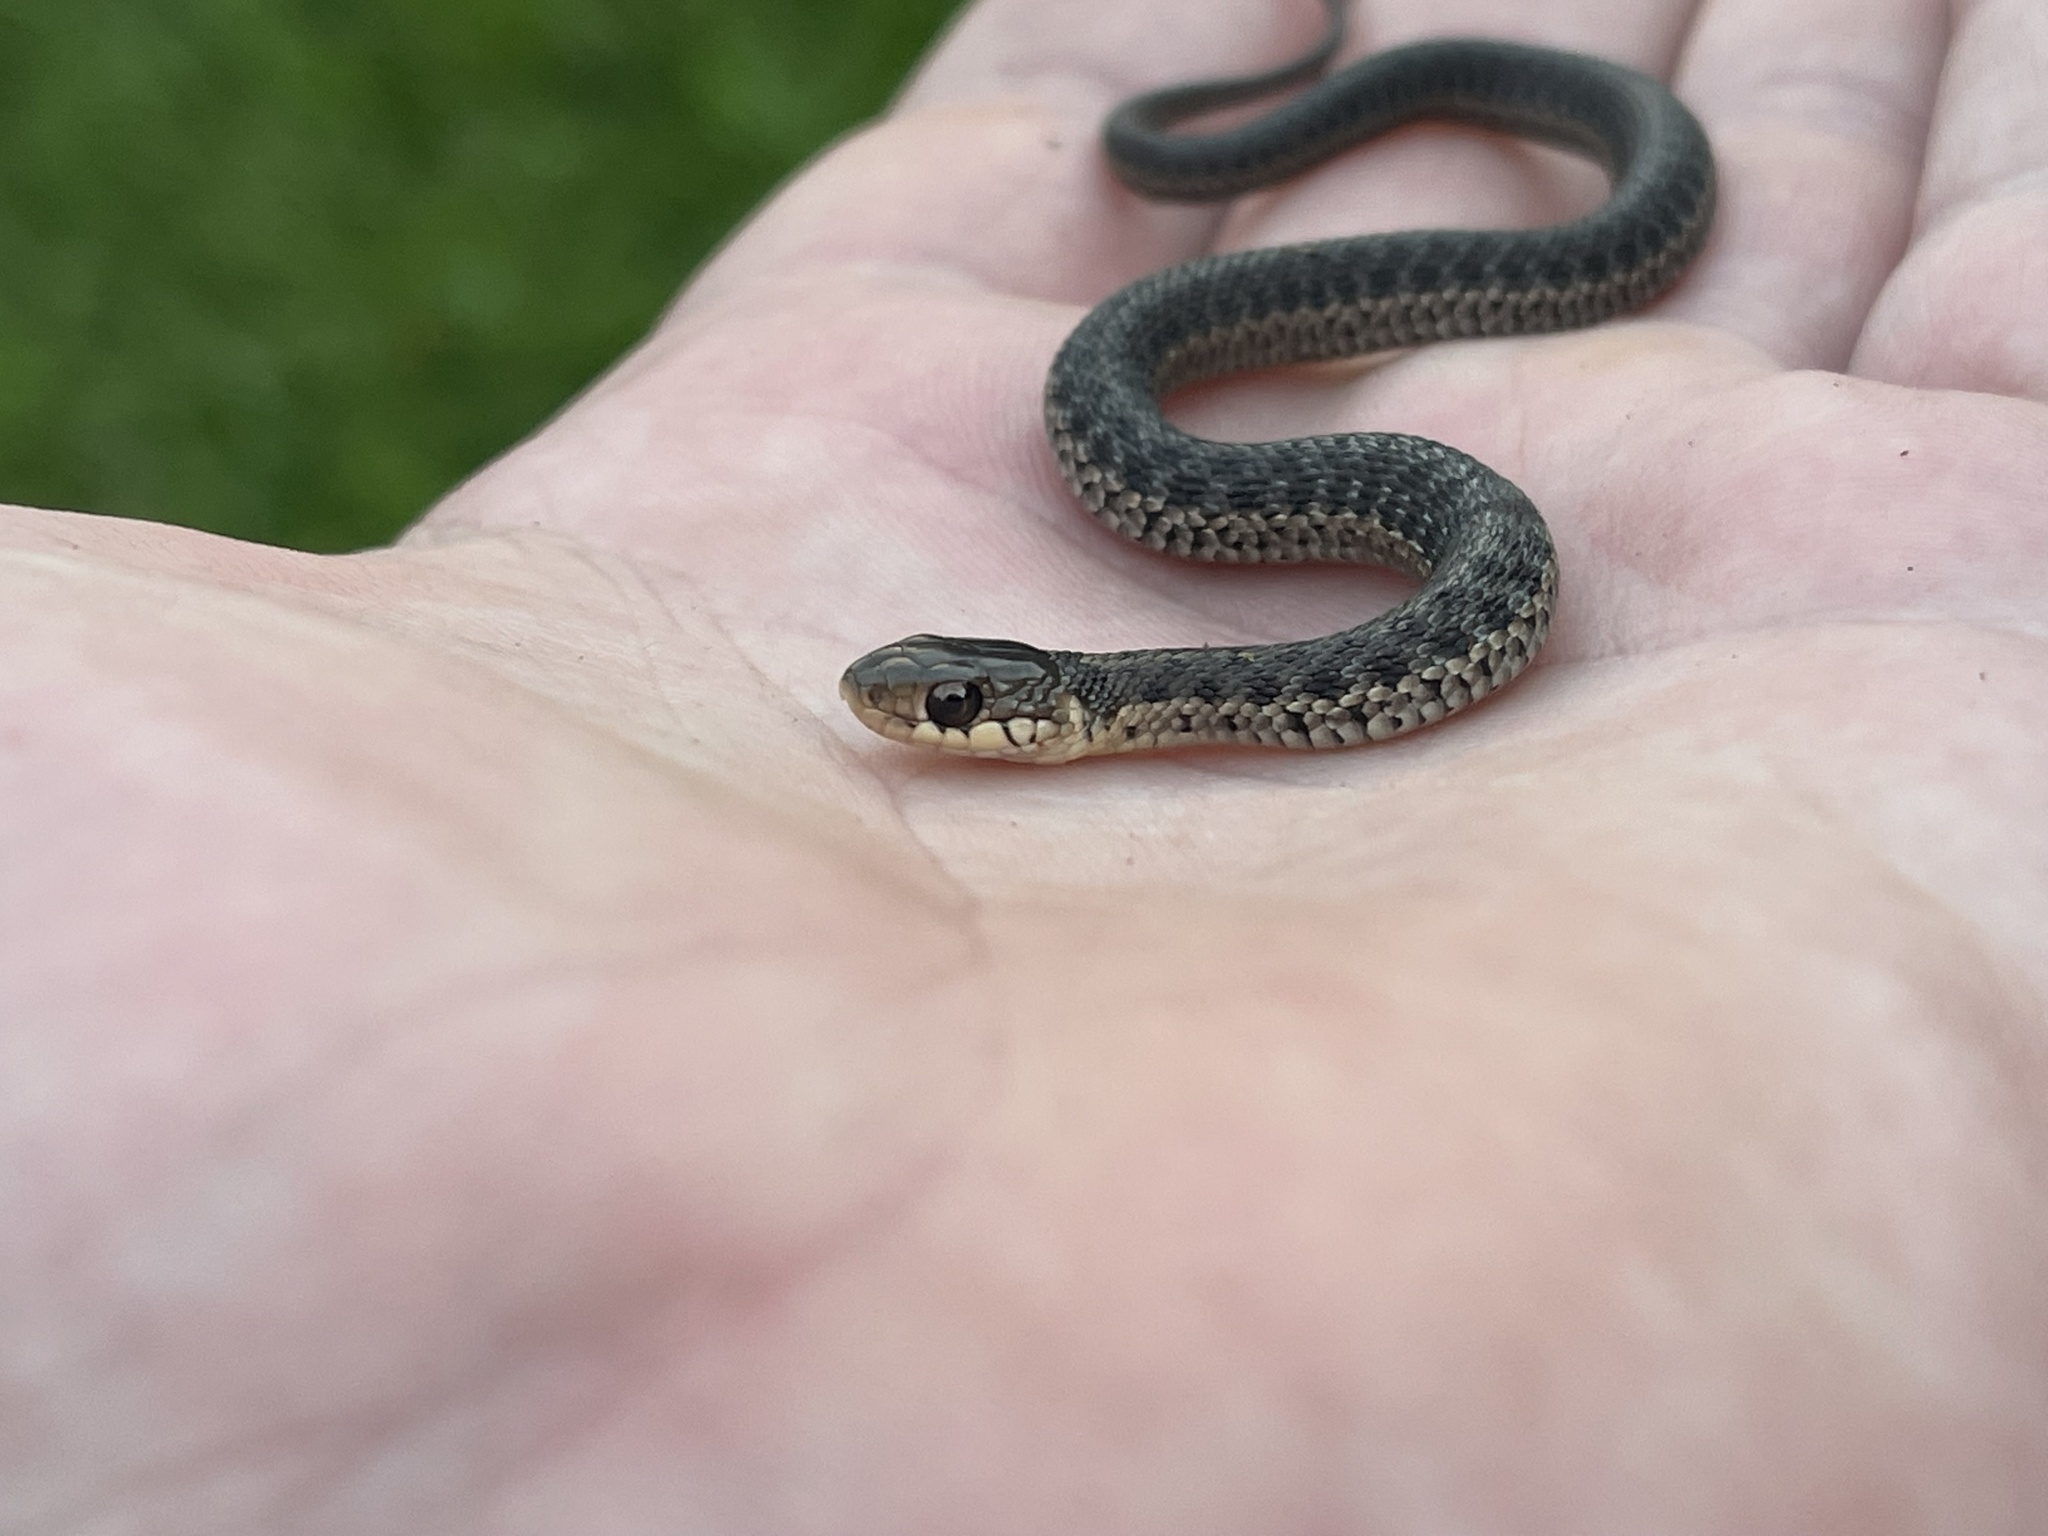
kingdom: Animalia
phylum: Chordata
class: Squamata
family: Colubridae
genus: Thamnophis
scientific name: Thamnophis sirtalis
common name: Common garter snake
